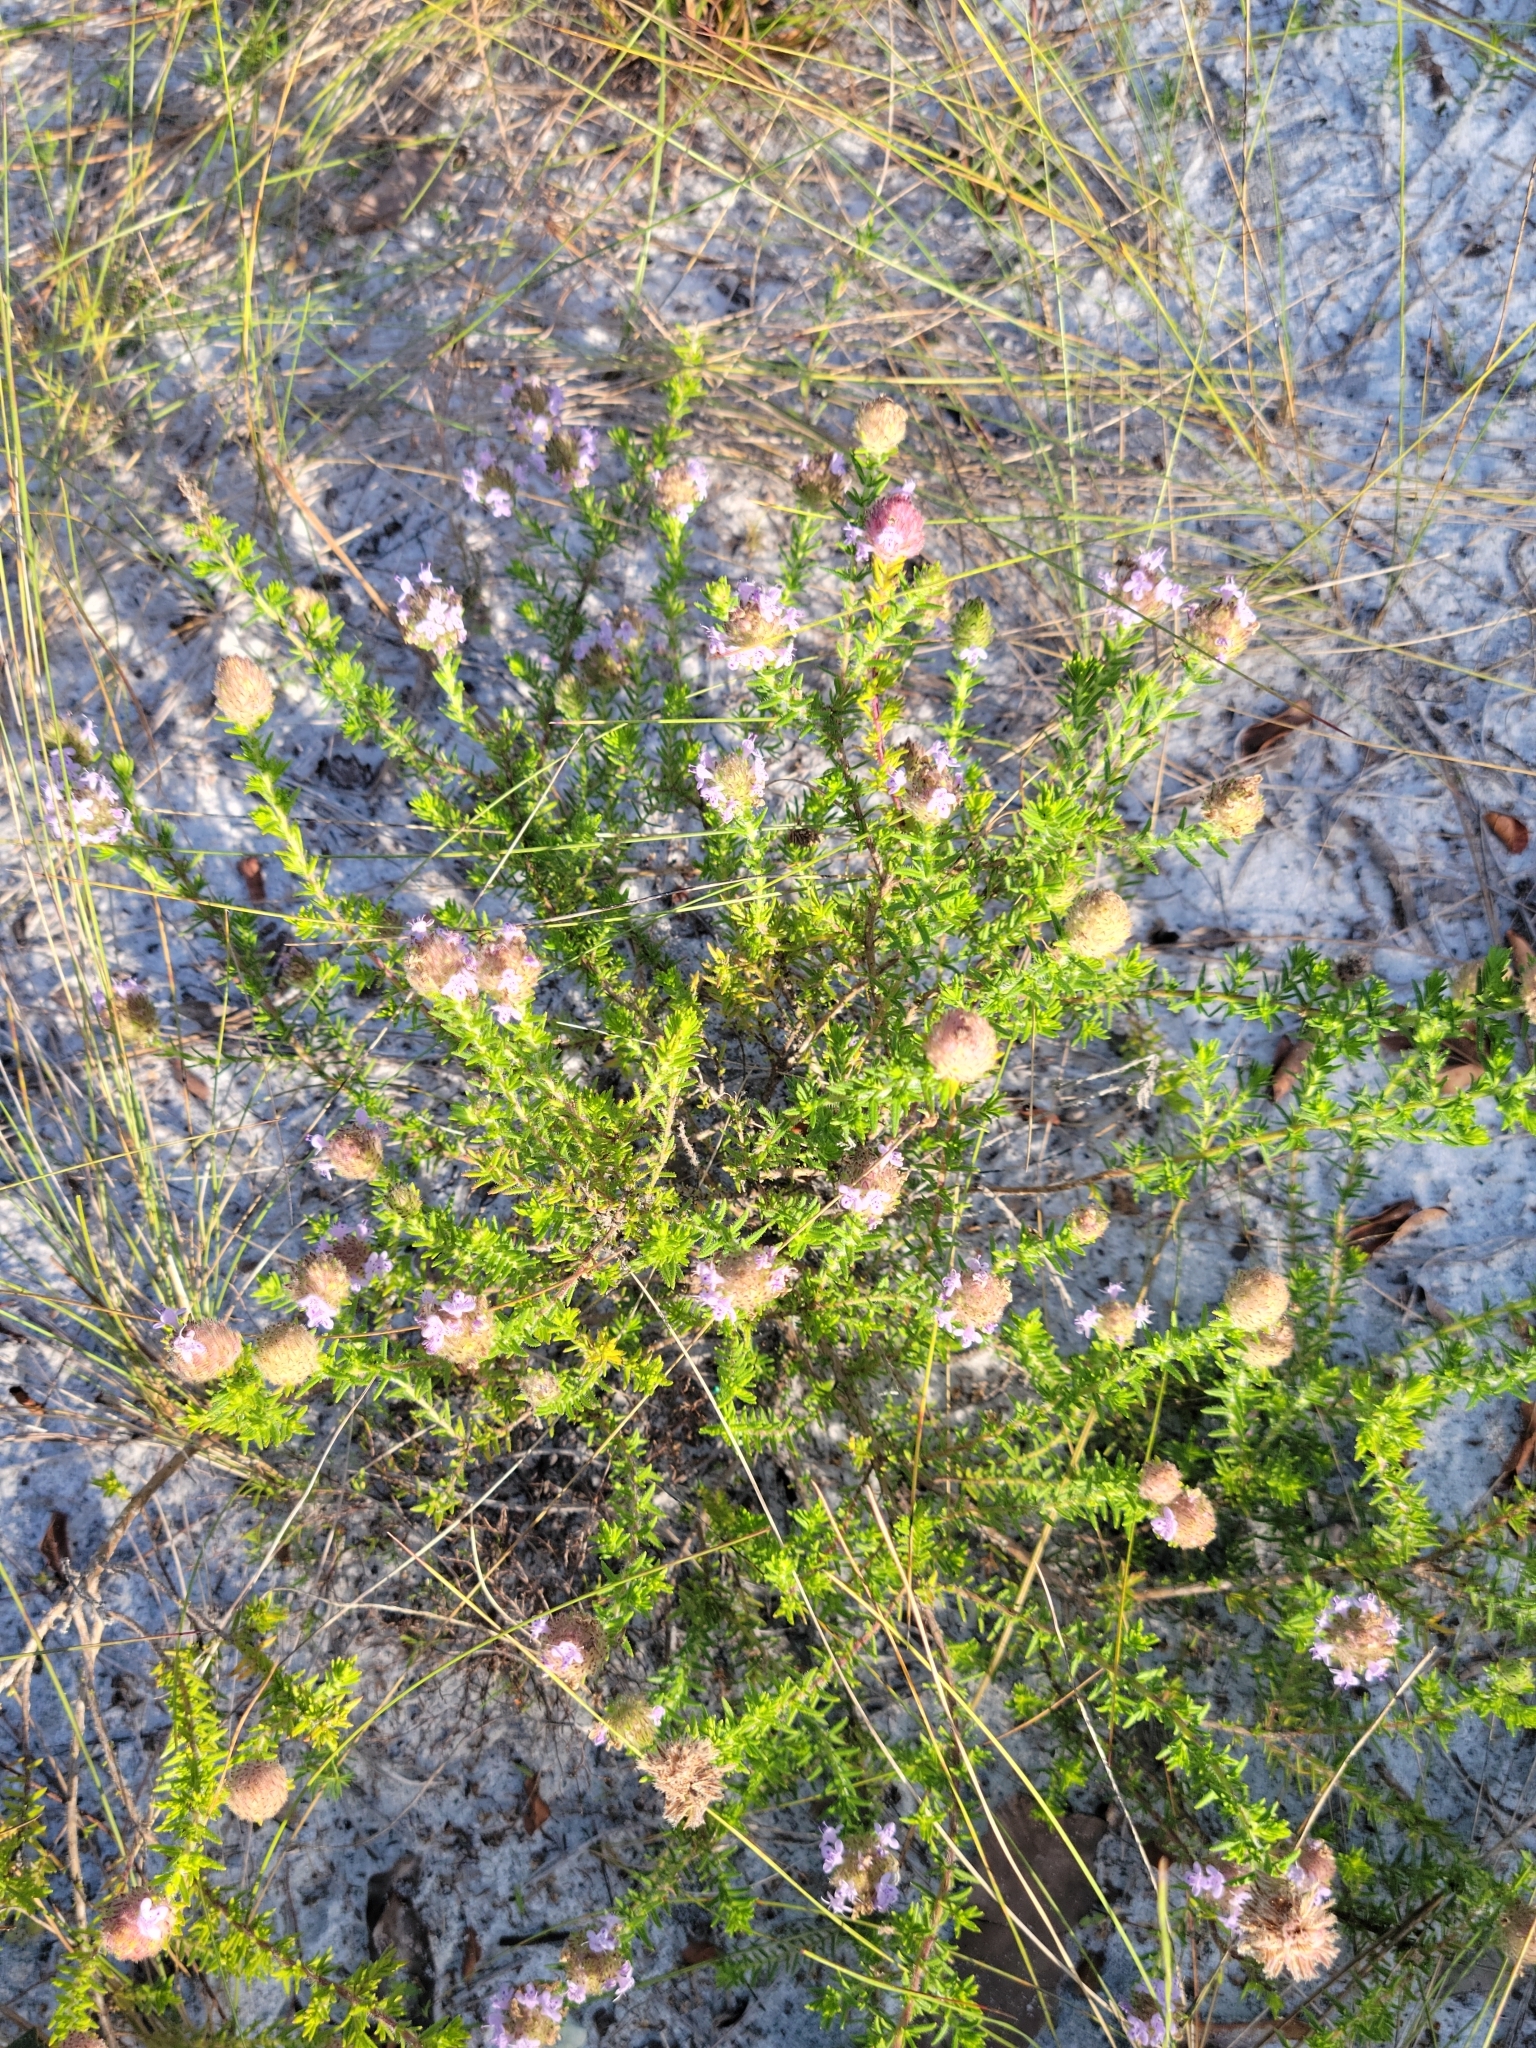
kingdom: Plantae
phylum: Tracheophyta
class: Magnoliopsida
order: Lamiales
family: Lamiaceae
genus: Piloblephis
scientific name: Piloblephis rigida
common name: Wild pennyroyal
